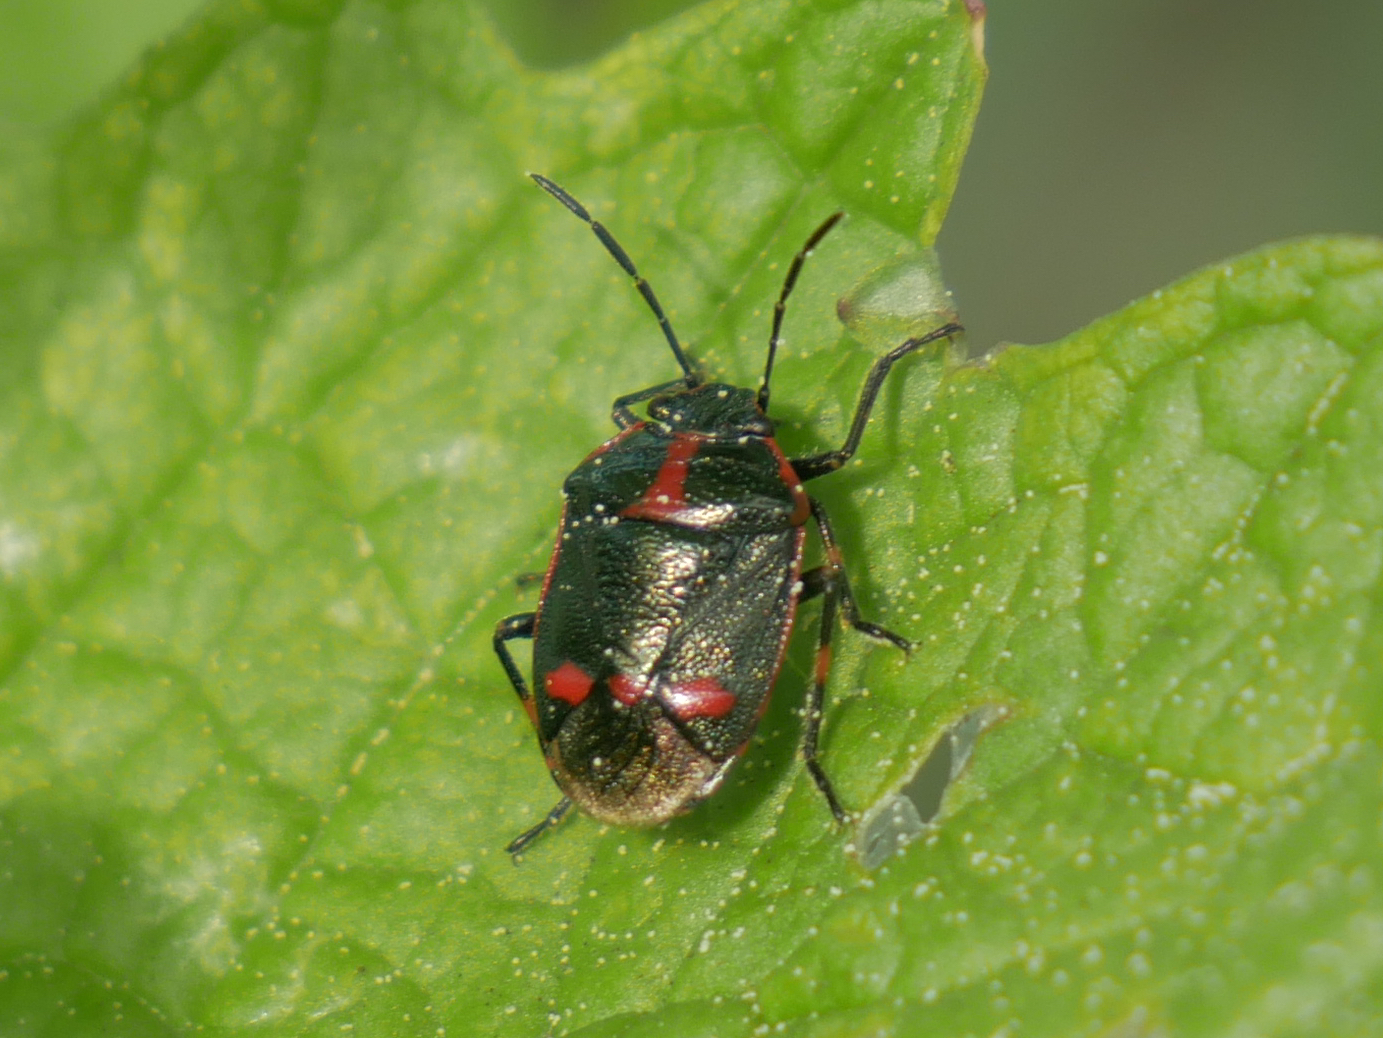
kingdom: Animalia
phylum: Arthropoda
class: Insecta
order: Hemiptera
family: Pentatomidae
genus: Eurydema
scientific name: Eurydema oleracea
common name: Cabbage bug
